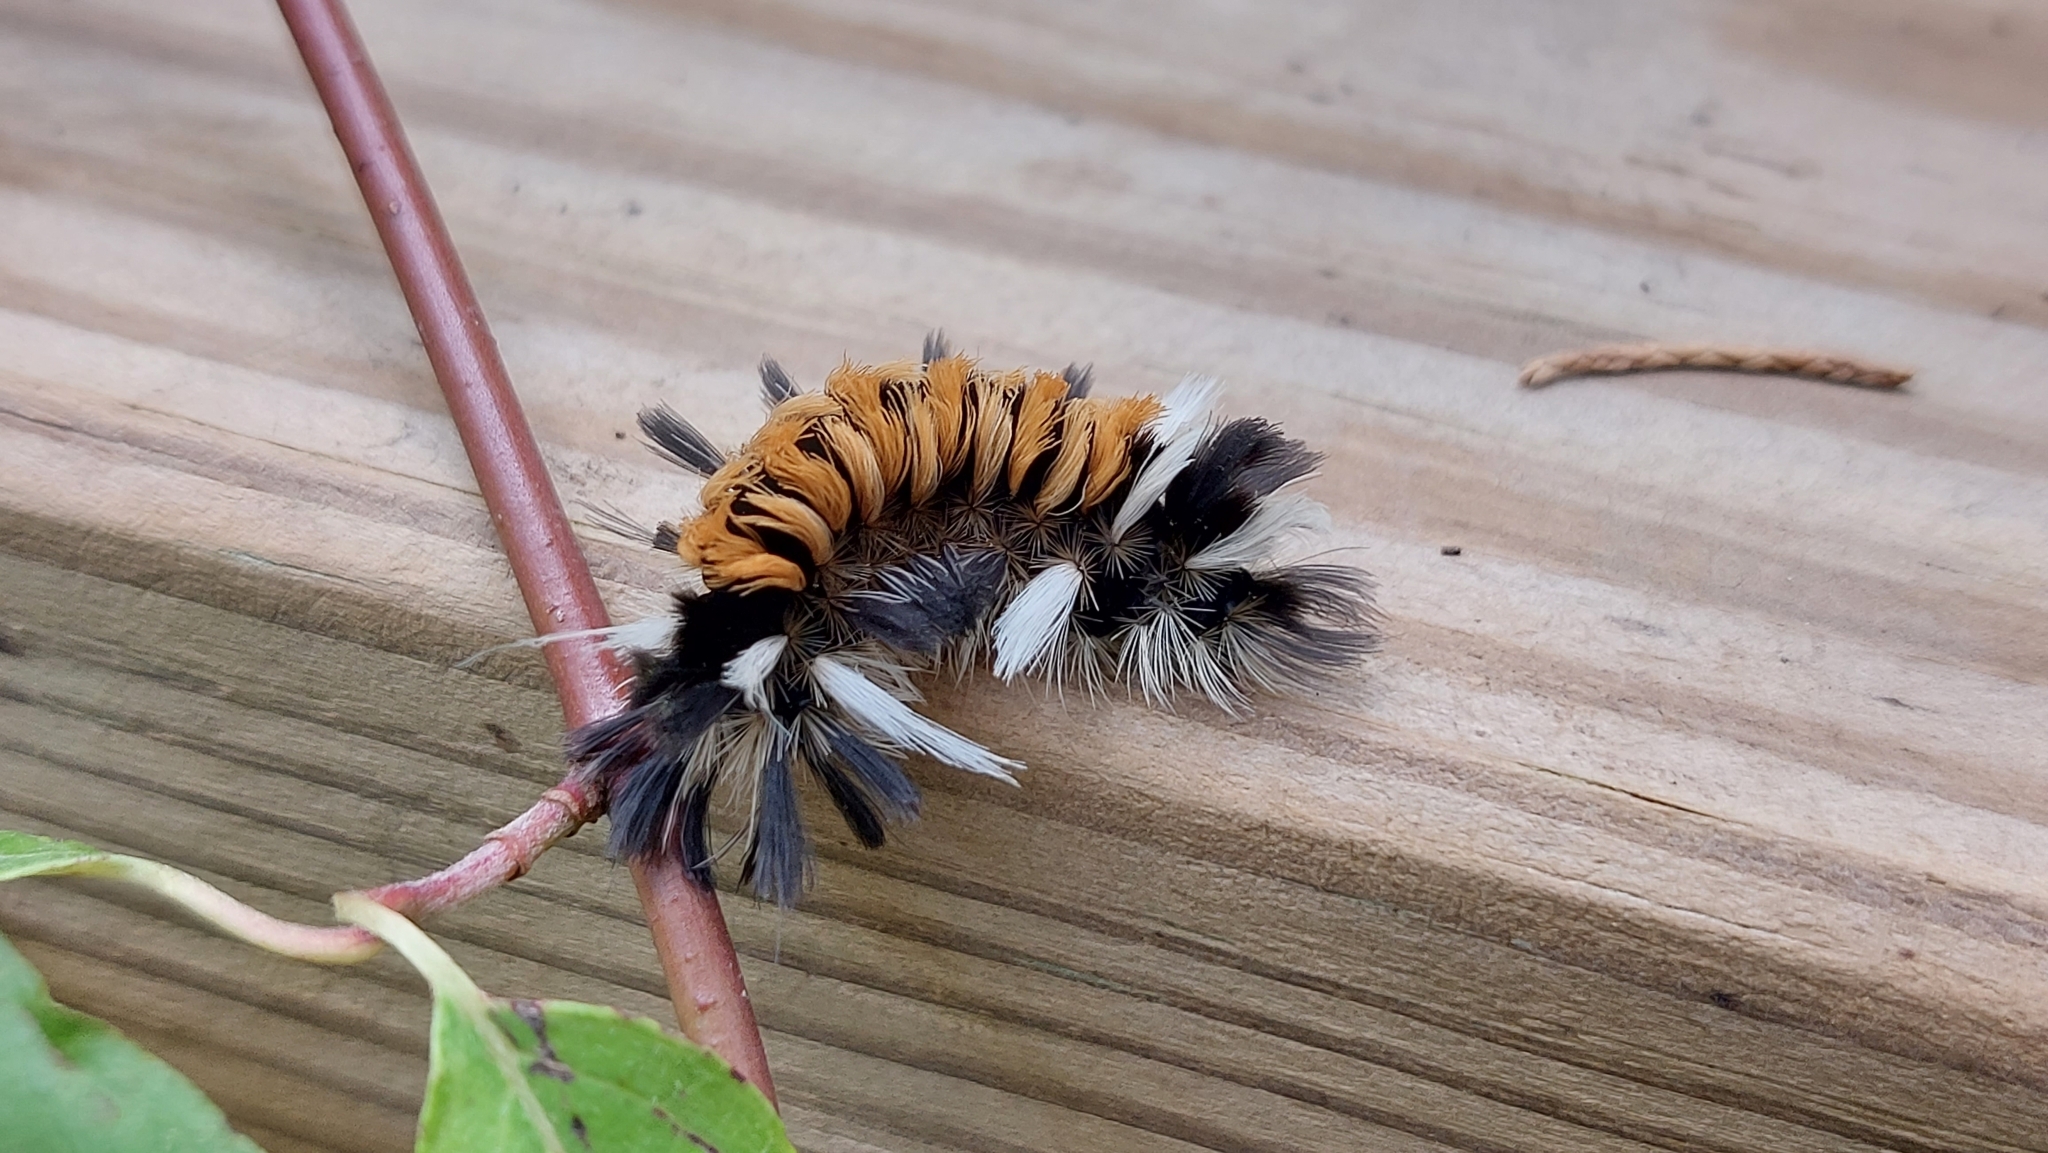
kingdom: Animalia
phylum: Arthropoda
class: Insecta
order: Lepidoptera
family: Erebidae
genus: Euchaetes
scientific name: Euchaetes egle
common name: Milkweed tussock moth
